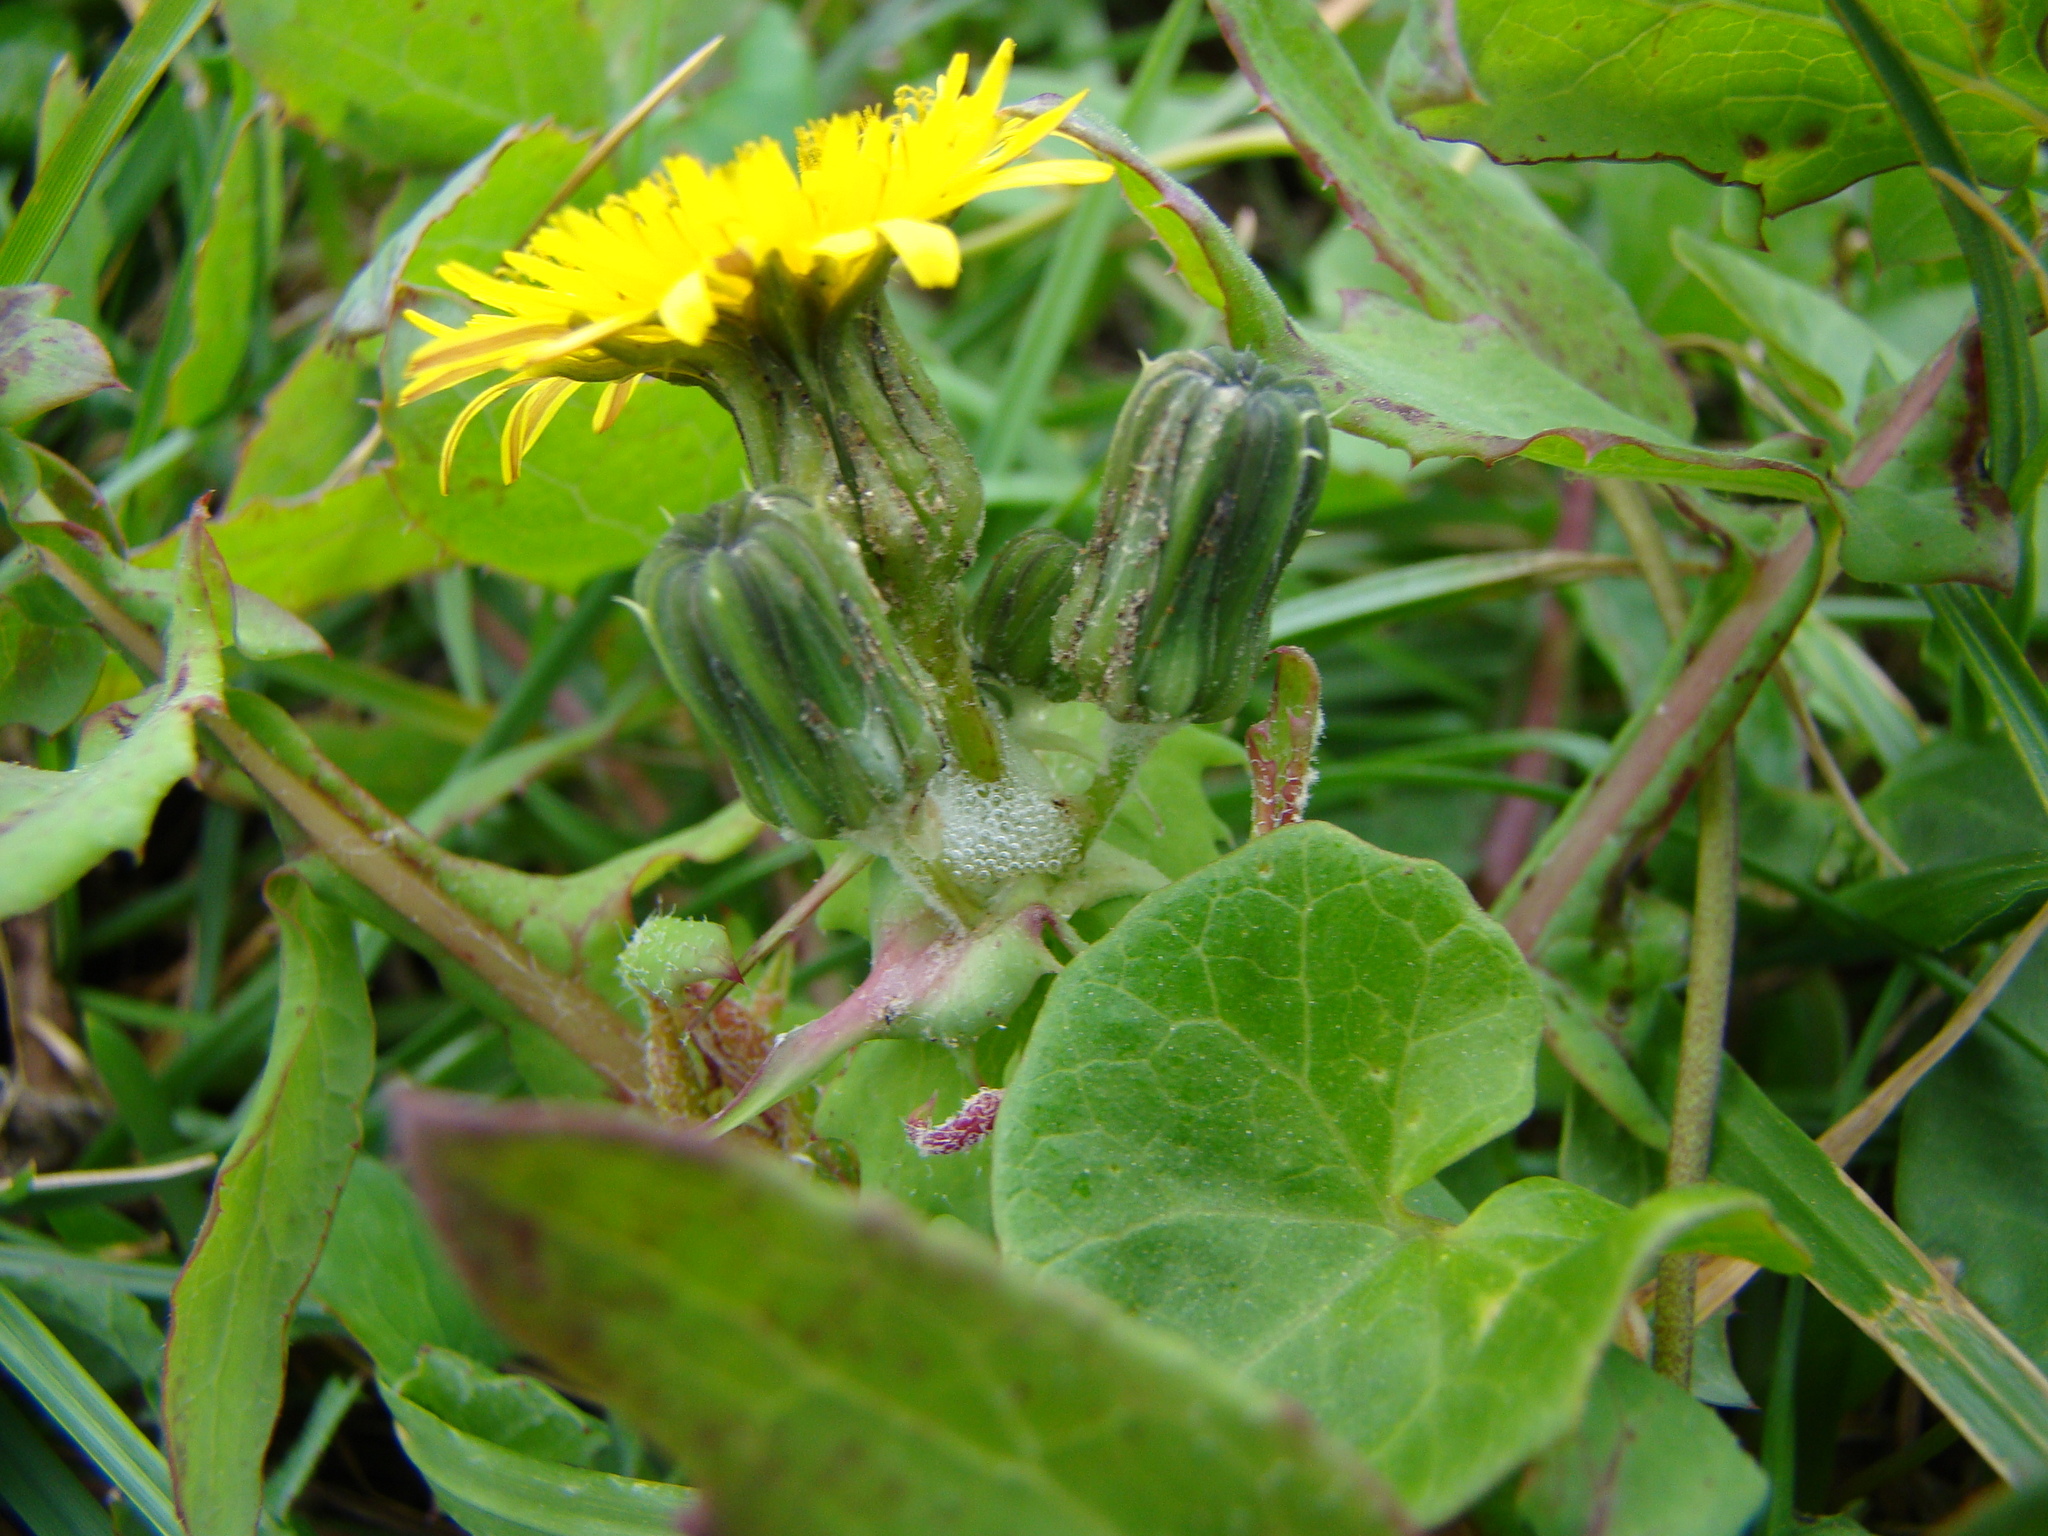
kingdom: Plantae
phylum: Tracheophyta
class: Magnoliopsida
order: Asterales
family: Asteraceae
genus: Sonchus
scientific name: Sonchus oleraceus
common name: Common sowthistle
